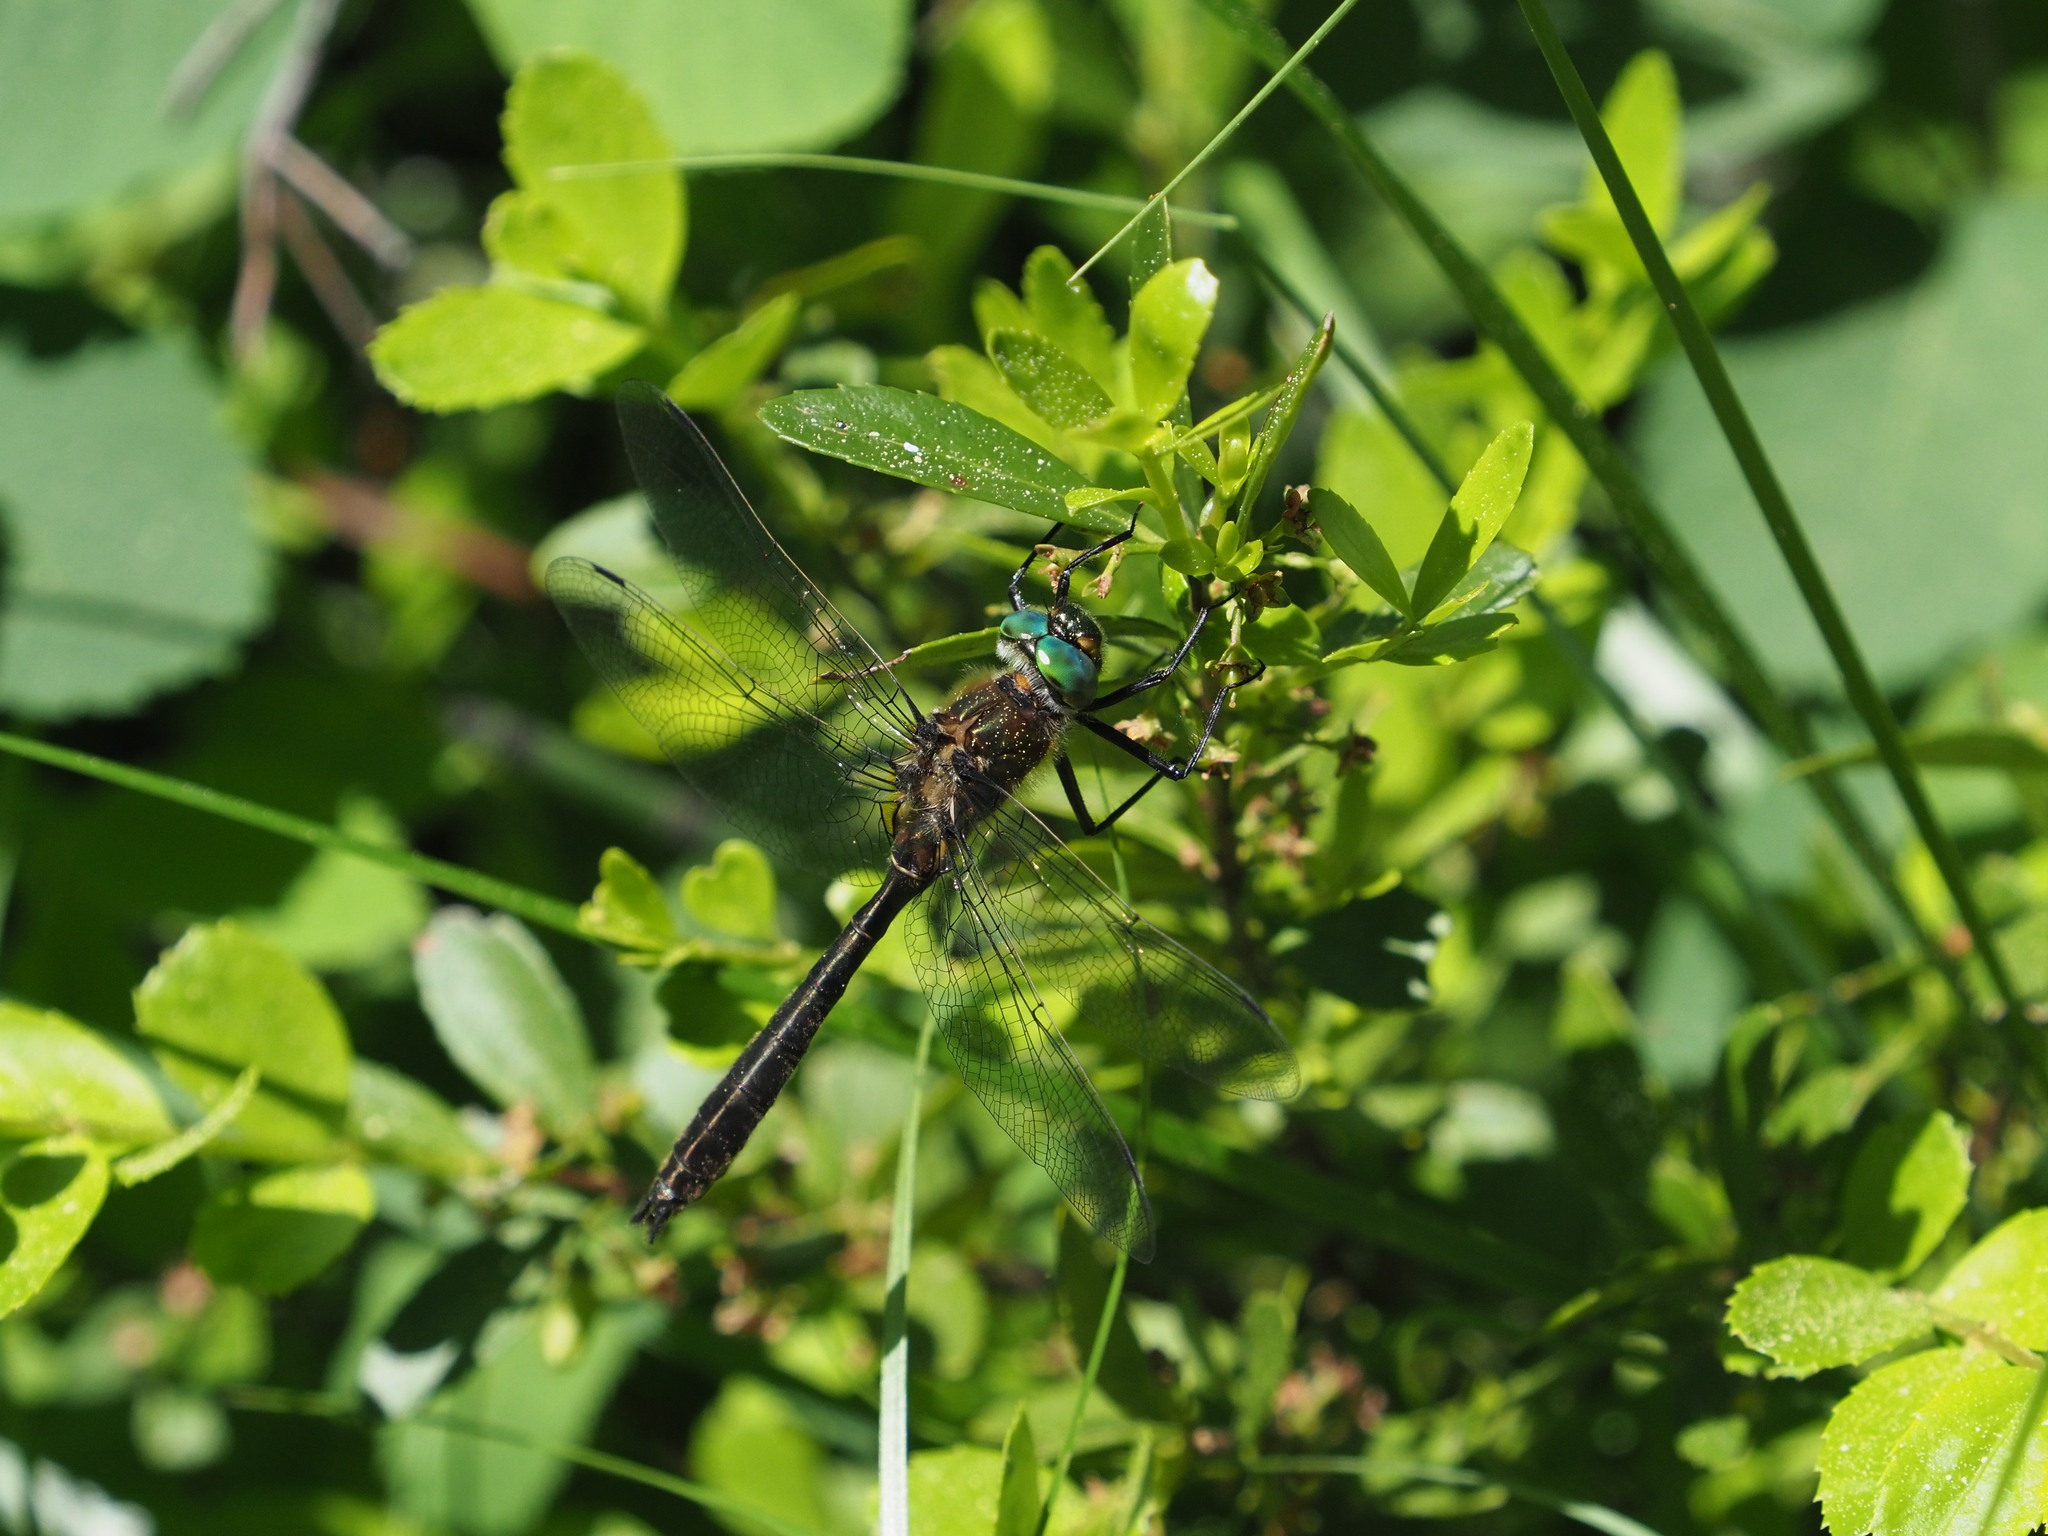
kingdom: Animalia
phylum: Arthropoda
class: Insecta
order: Odonata
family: Corduliidae
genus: Cordulia
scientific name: Cordulia shurtleffii
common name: American emerald
